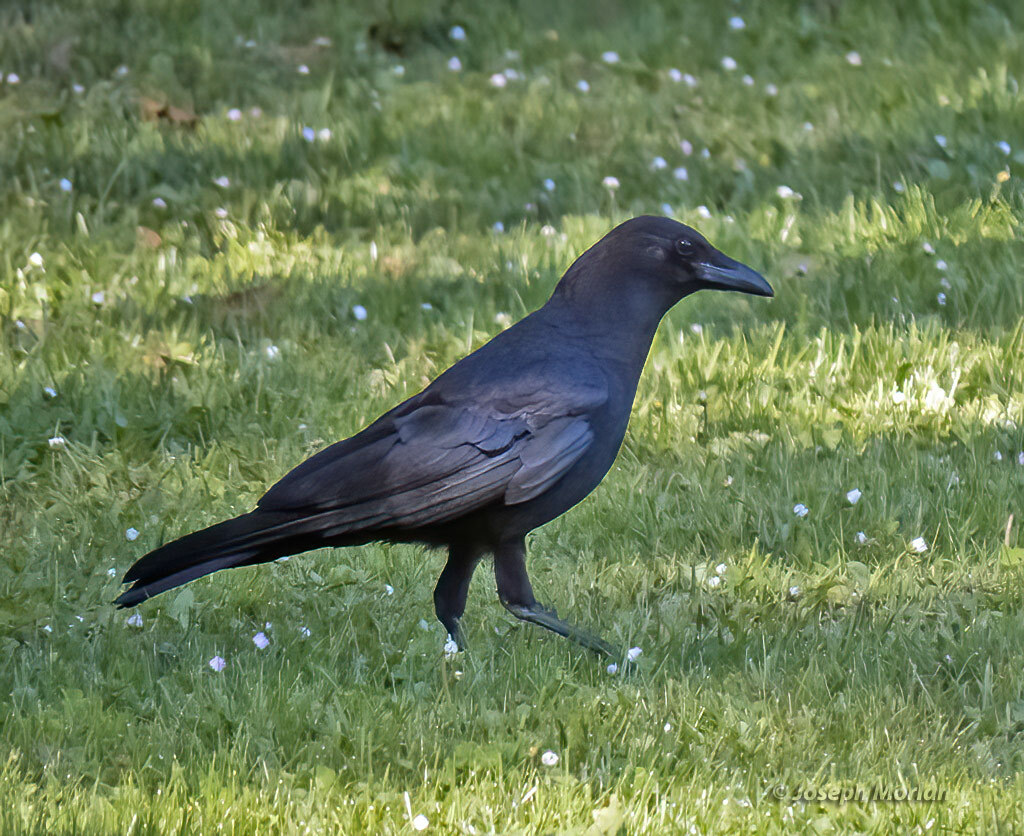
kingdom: Animalia
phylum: Chordata
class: Aves
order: Passeriformes
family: Corvidae
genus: Corvus
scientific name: Corvus brachyrhynchos
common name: American crow
